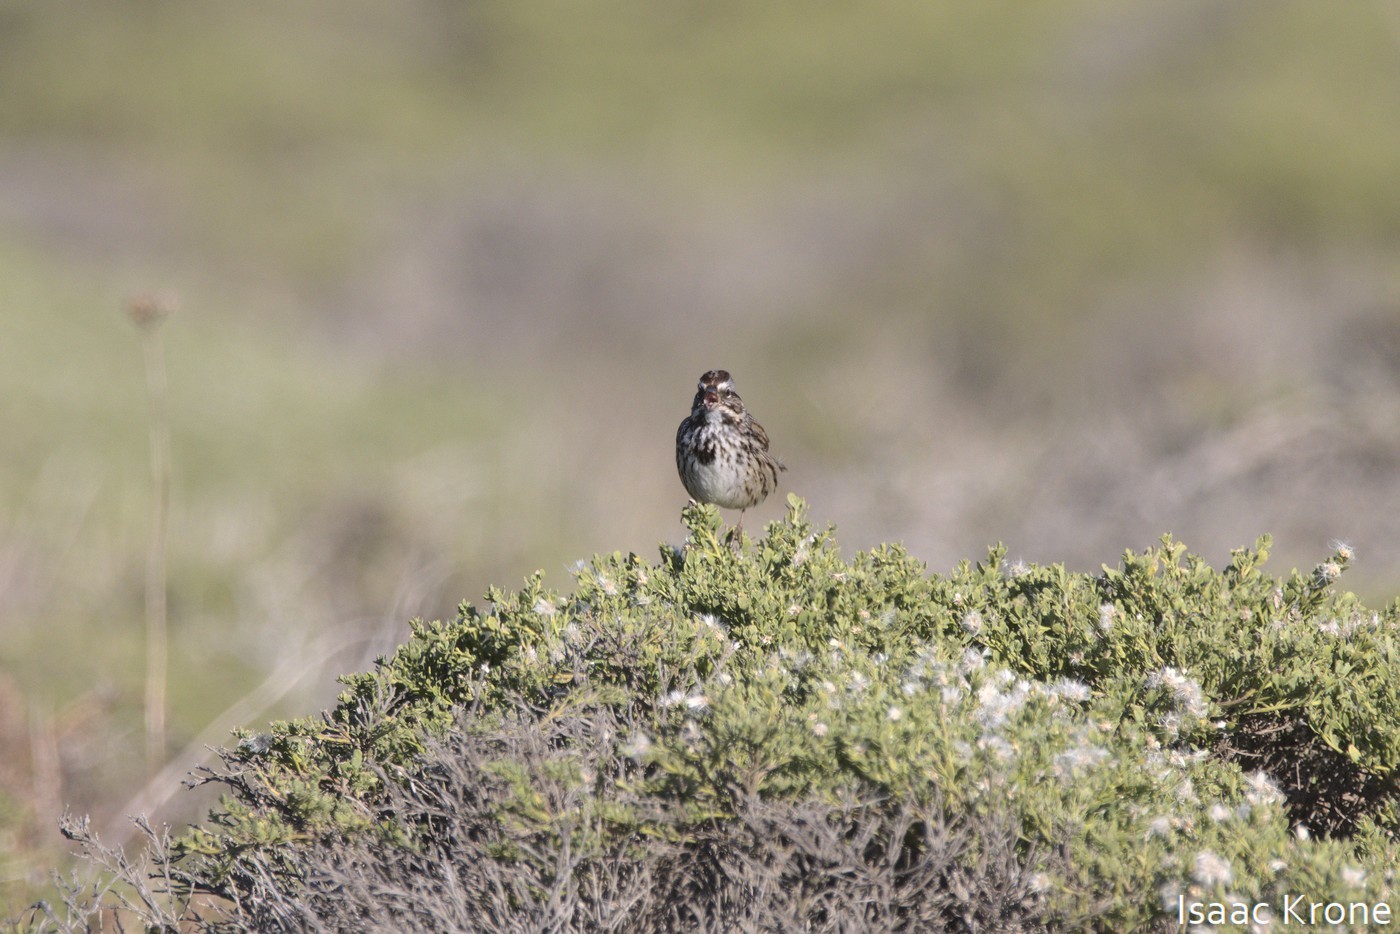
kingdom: Animalia
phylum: Chordata
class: Aves
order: Passeriformes
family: Passerellidae
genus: Melospiza
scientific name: Melospiza melodia
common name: Song sparrow
